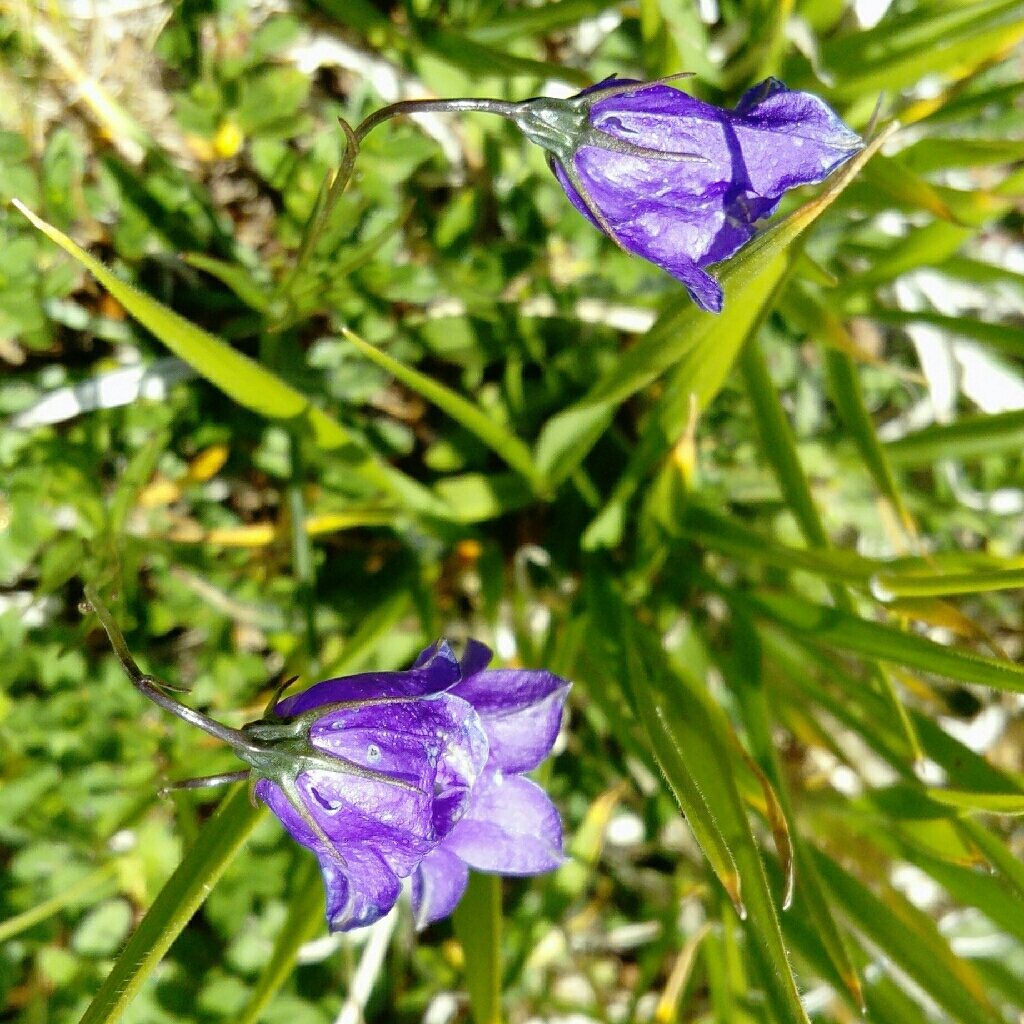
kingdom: Plantae
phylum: Tracheophyta
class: Magnoliopsida
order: Asterales
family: Campanulaceae
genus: Campanula
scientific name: Campanula scheuchzeri
